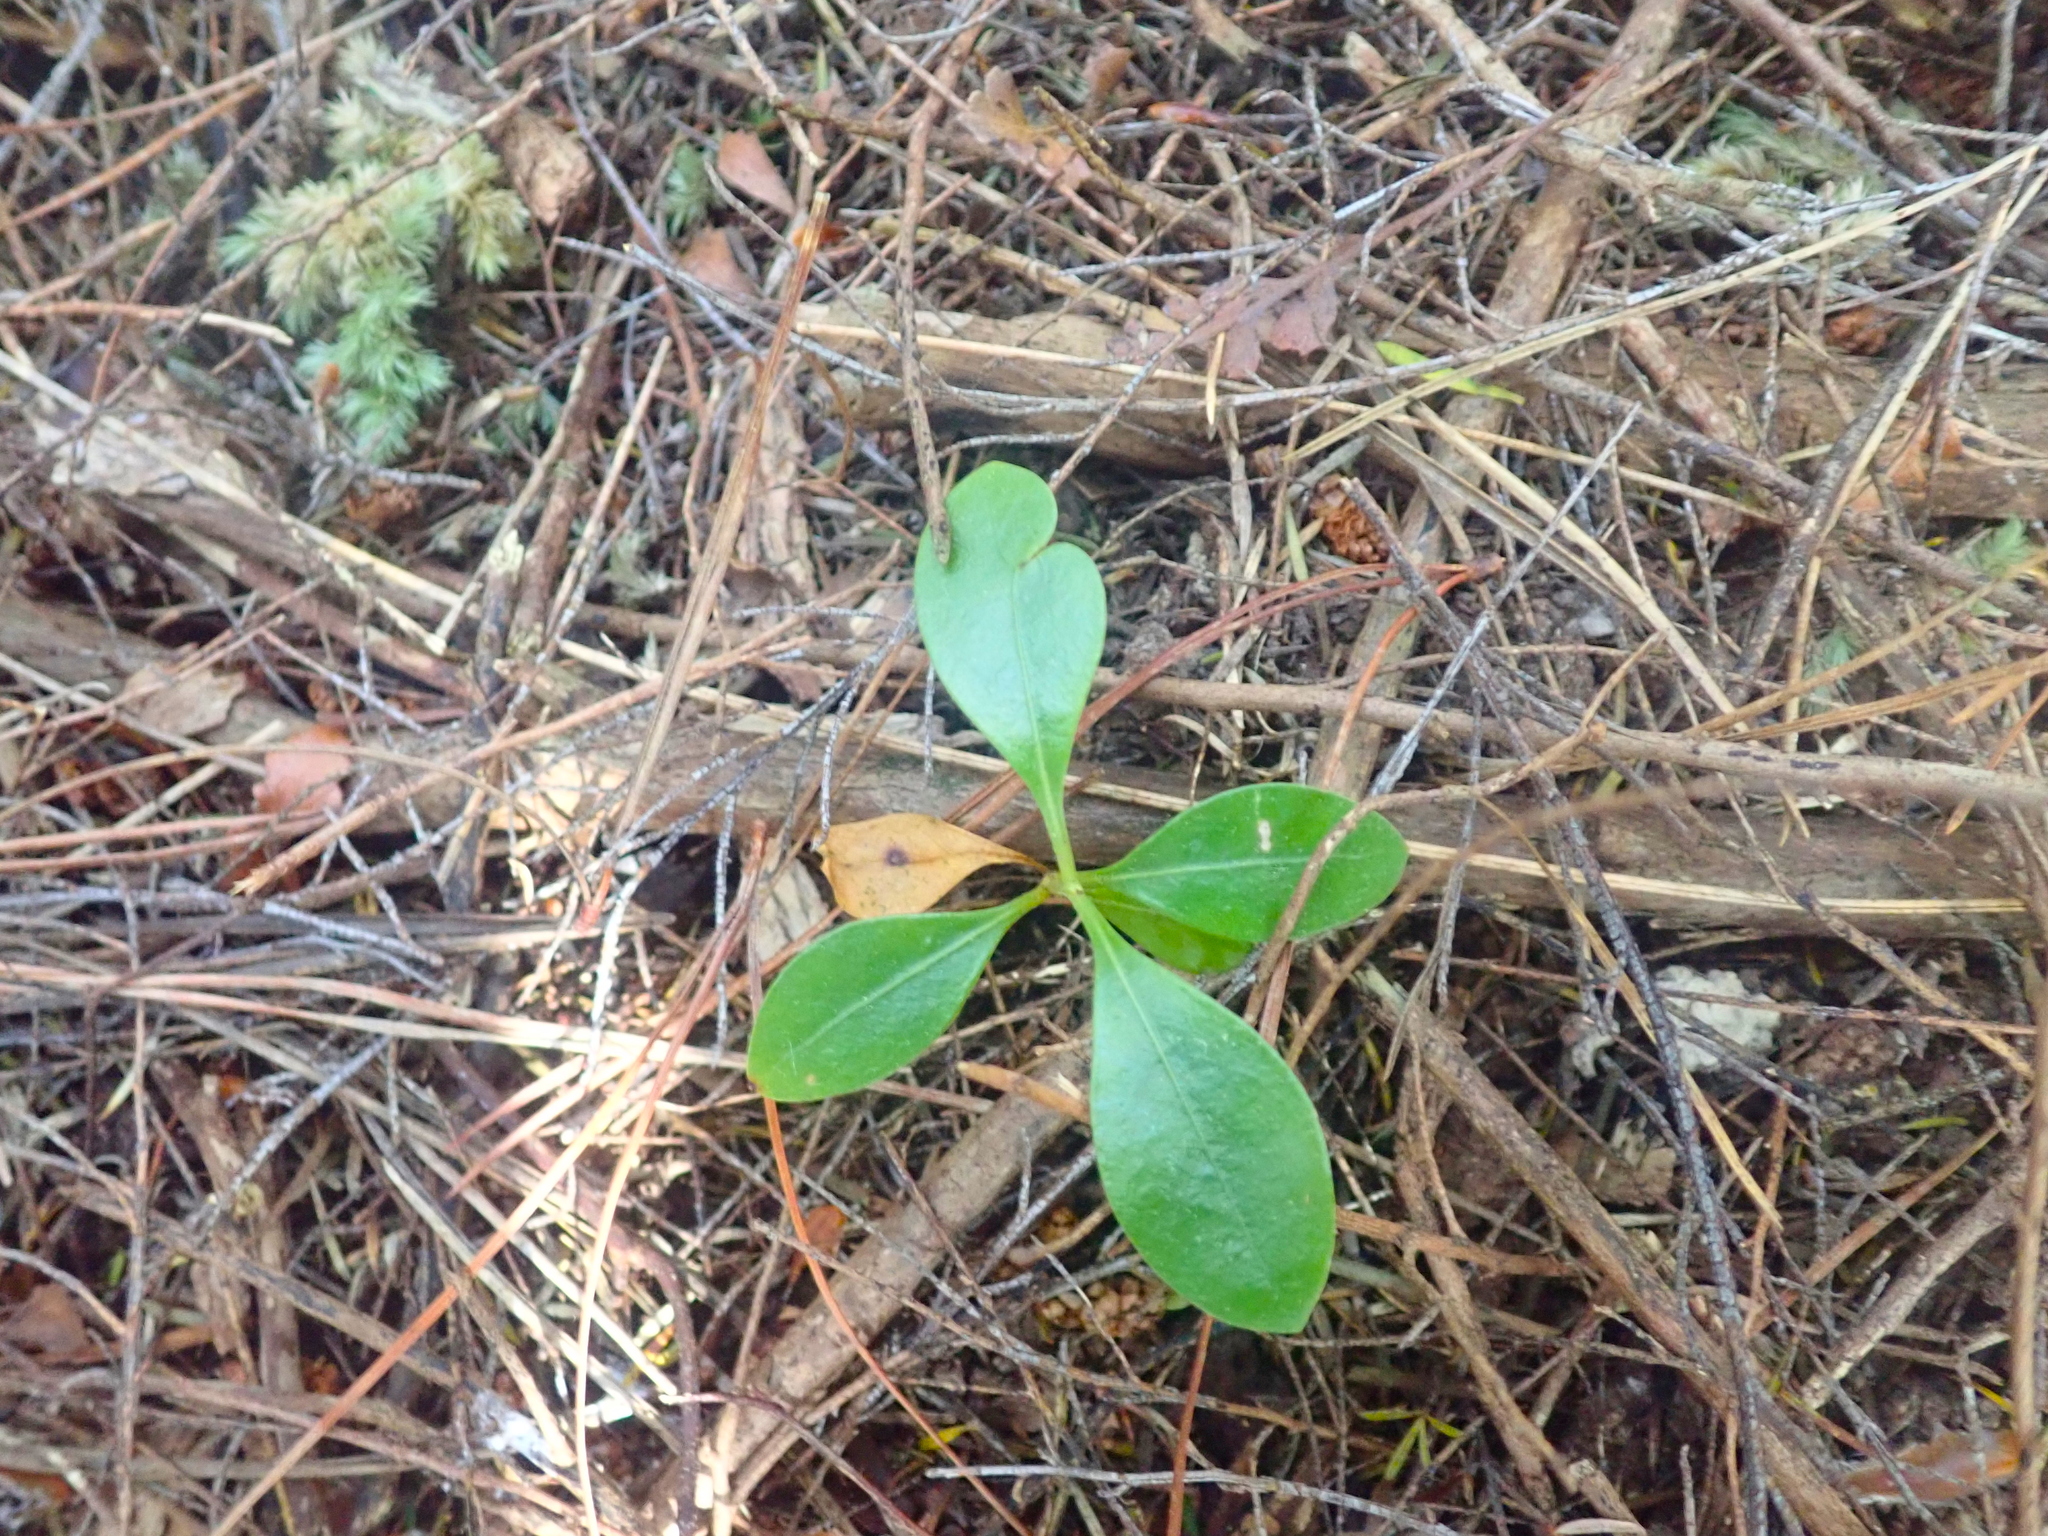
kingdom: Plantae
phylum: Tracheophyta
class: Magnoliopsida
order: Gentianales
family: Rubiaceae
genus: Coprosma
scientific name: Coprosma lucida
